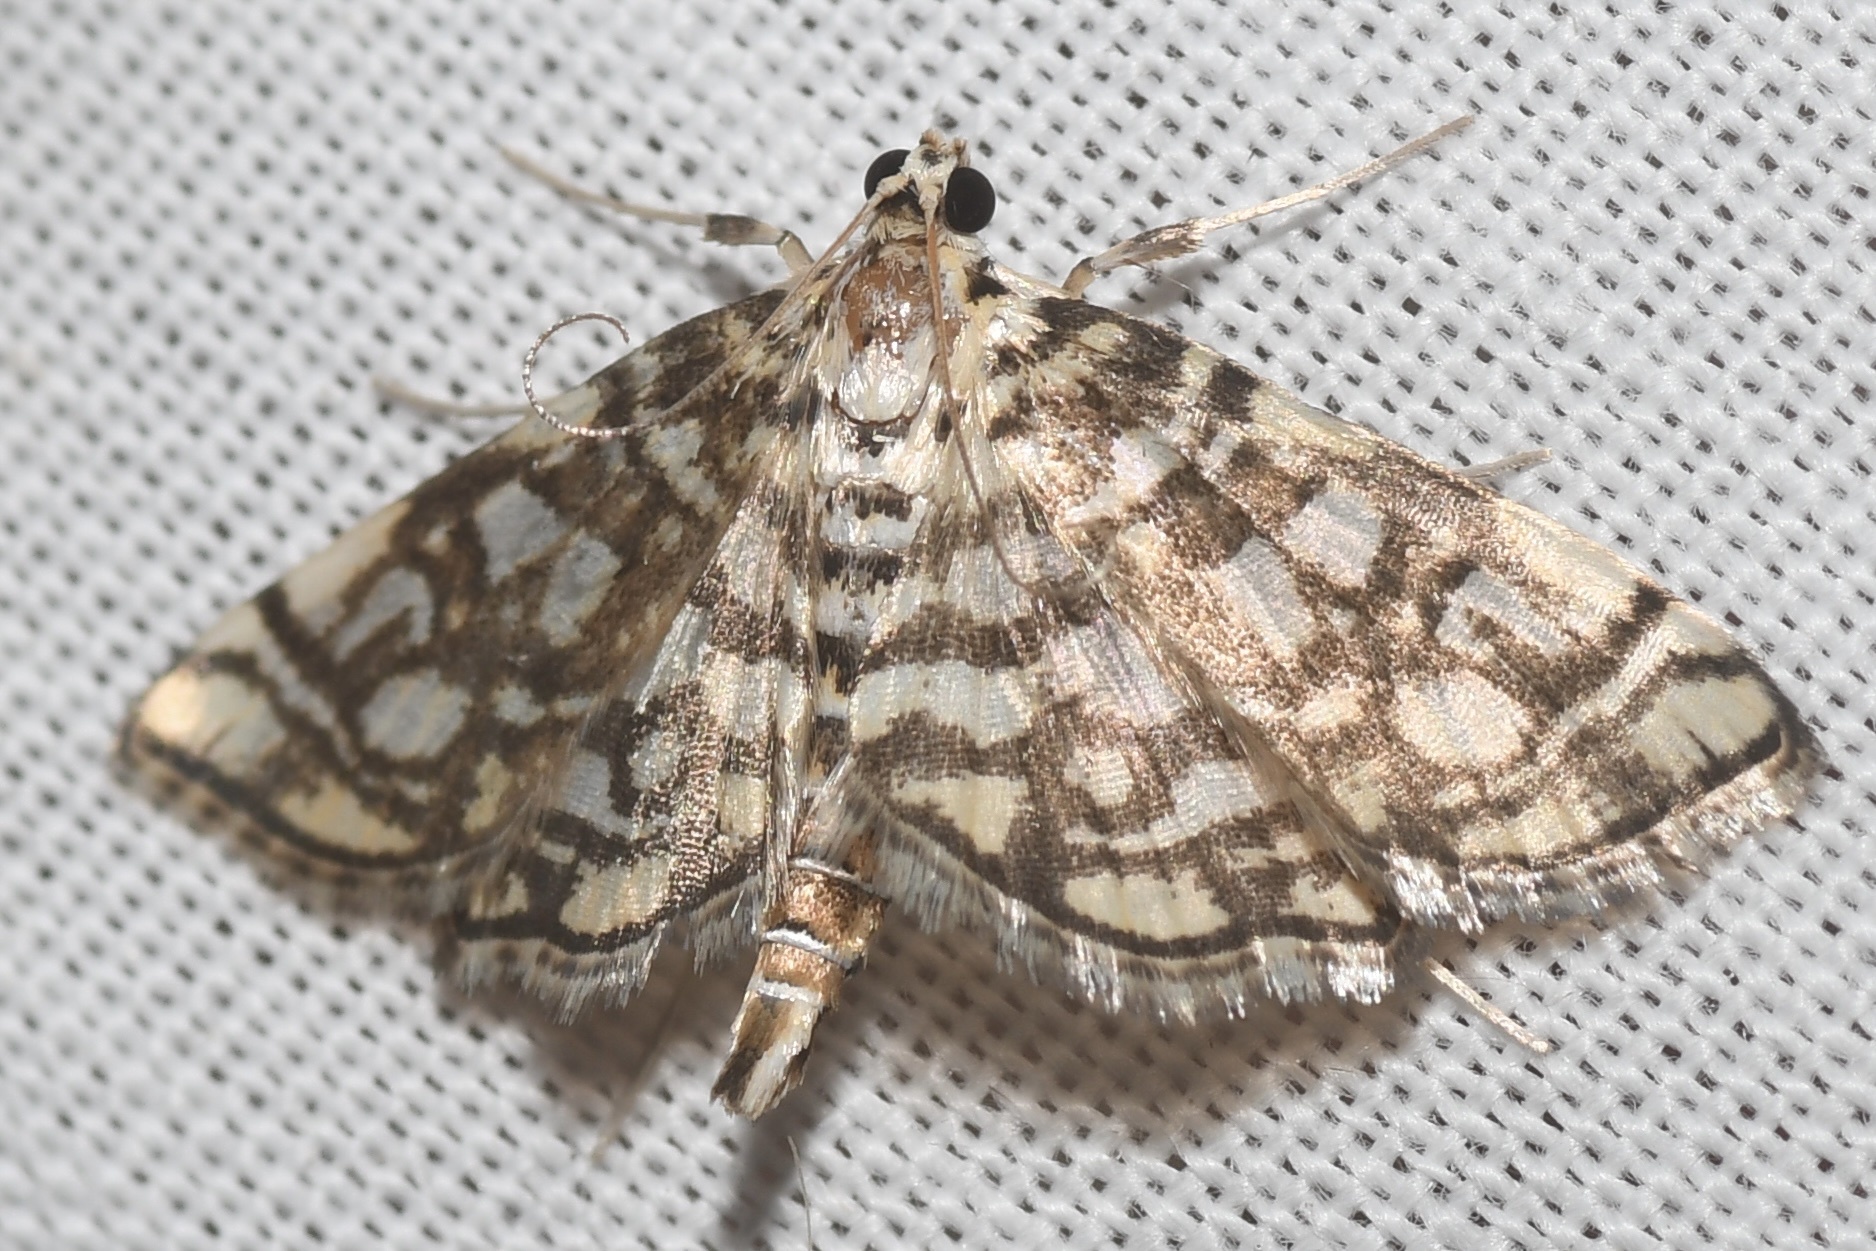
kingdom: Animalia
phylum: Arthropoda
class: Insecta
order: Lepidoptera
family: Crambidae
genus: Lygropia
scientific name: Lygropia rivulalis
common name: Bog lygropia moth
